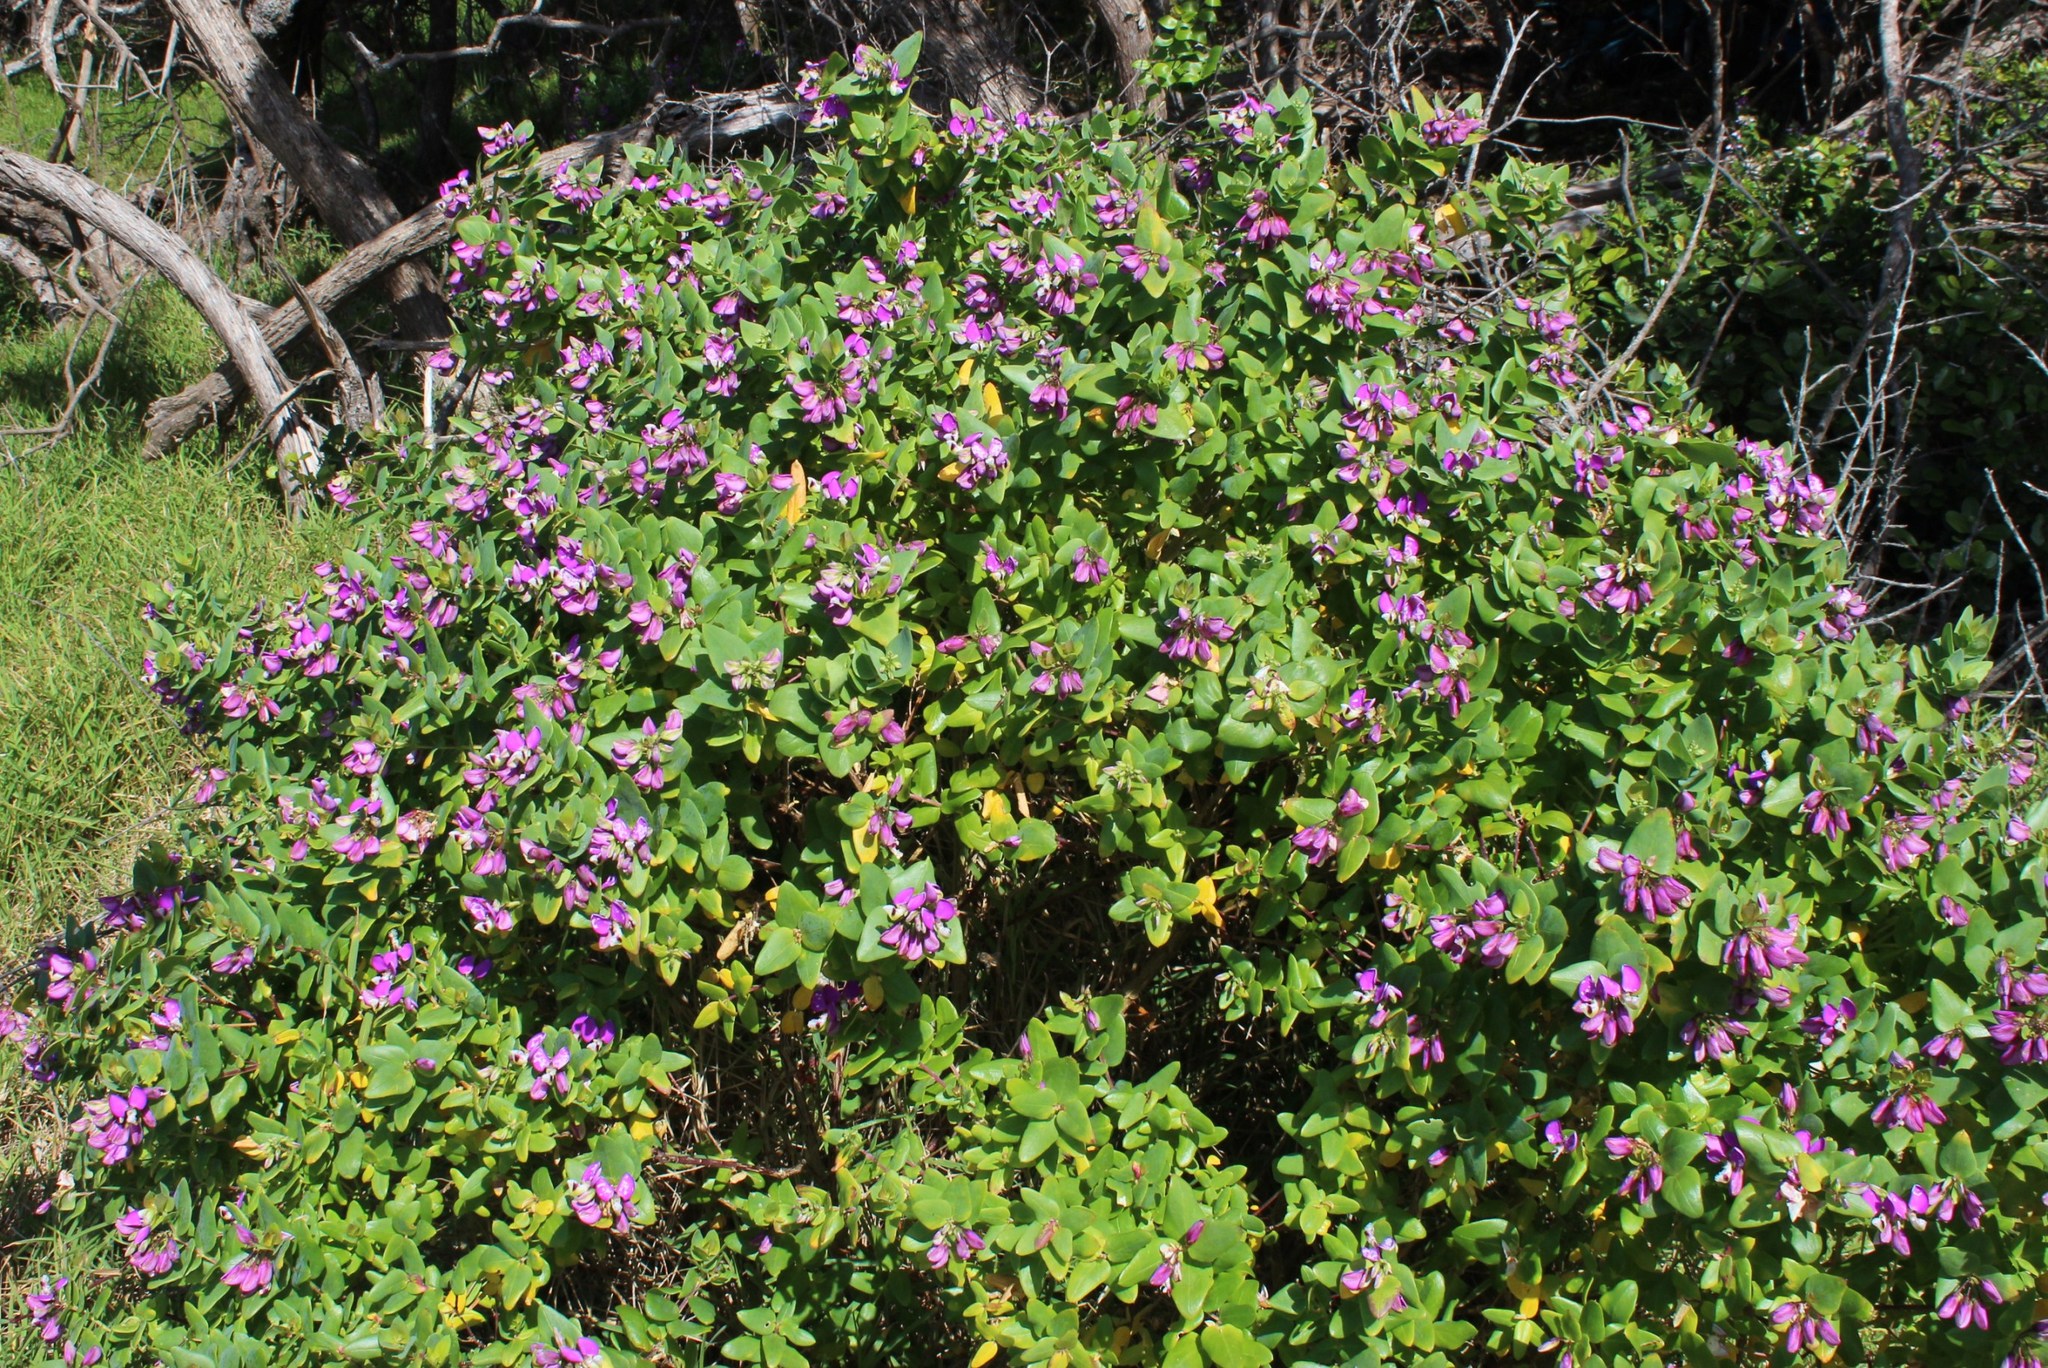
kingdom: Plantae
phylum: Tracheophyta
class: Magnoliopsida
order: Fabales
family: Polygalaceae
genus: Polygala
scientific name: Polygala fruticosa
